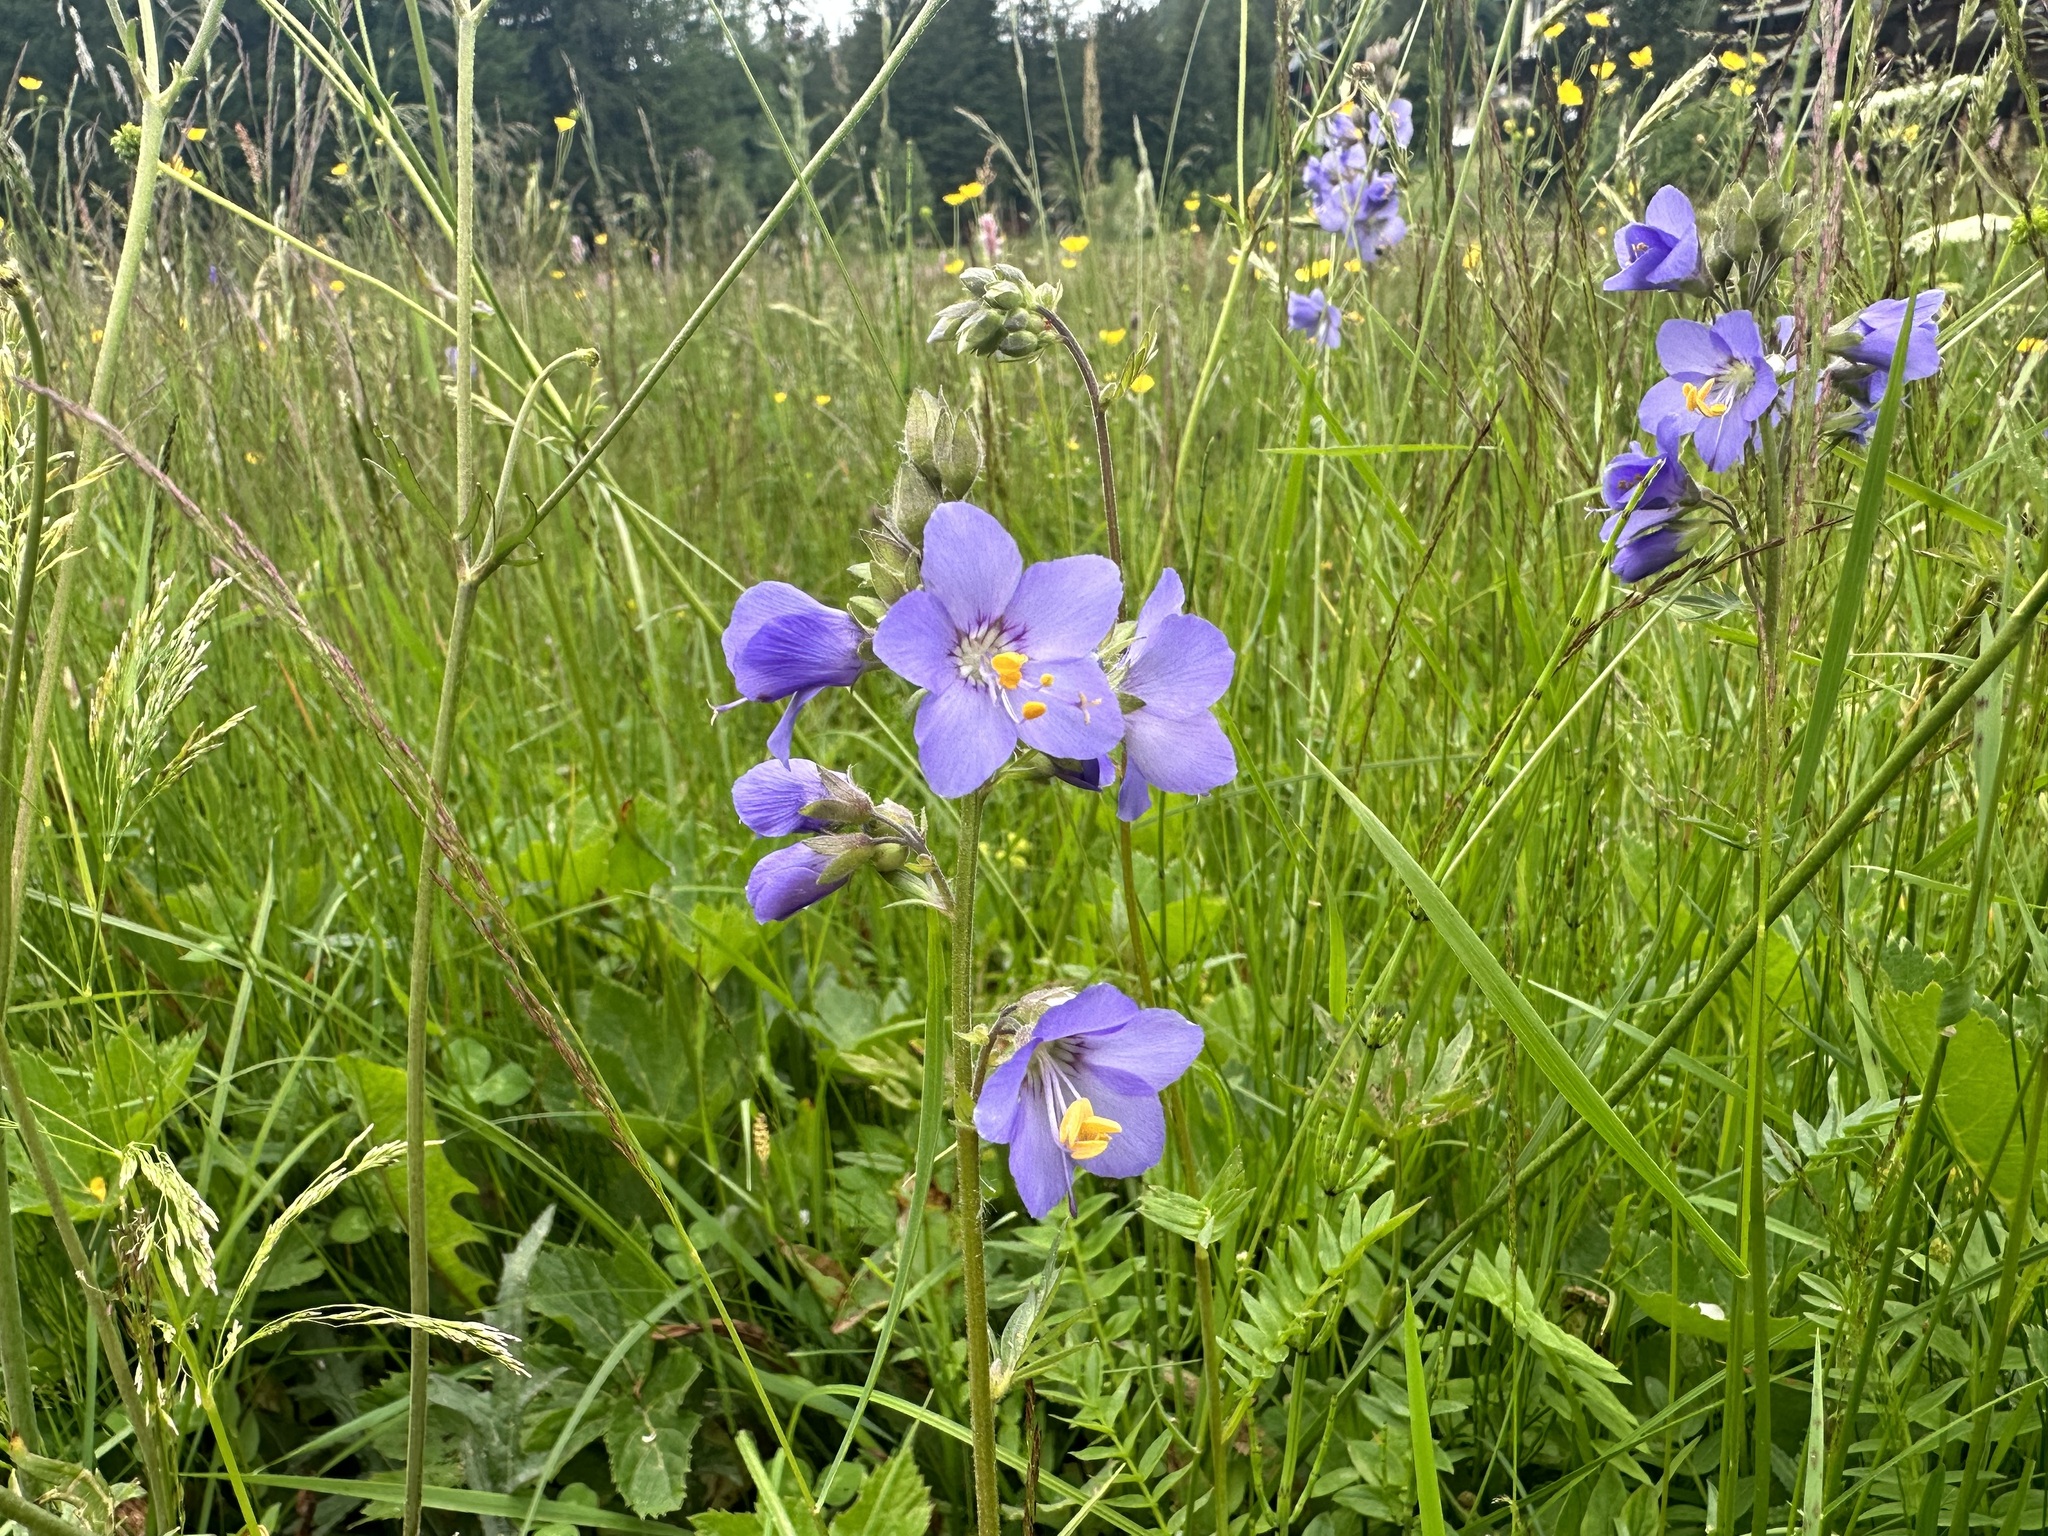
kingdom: Plantae
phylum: Tracheophyta
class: Magnoliopsida
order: Ericales
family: Polemoniaceae
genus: Polemonium
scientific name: Polemonium caeruleum
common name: Jacob's-ladder
